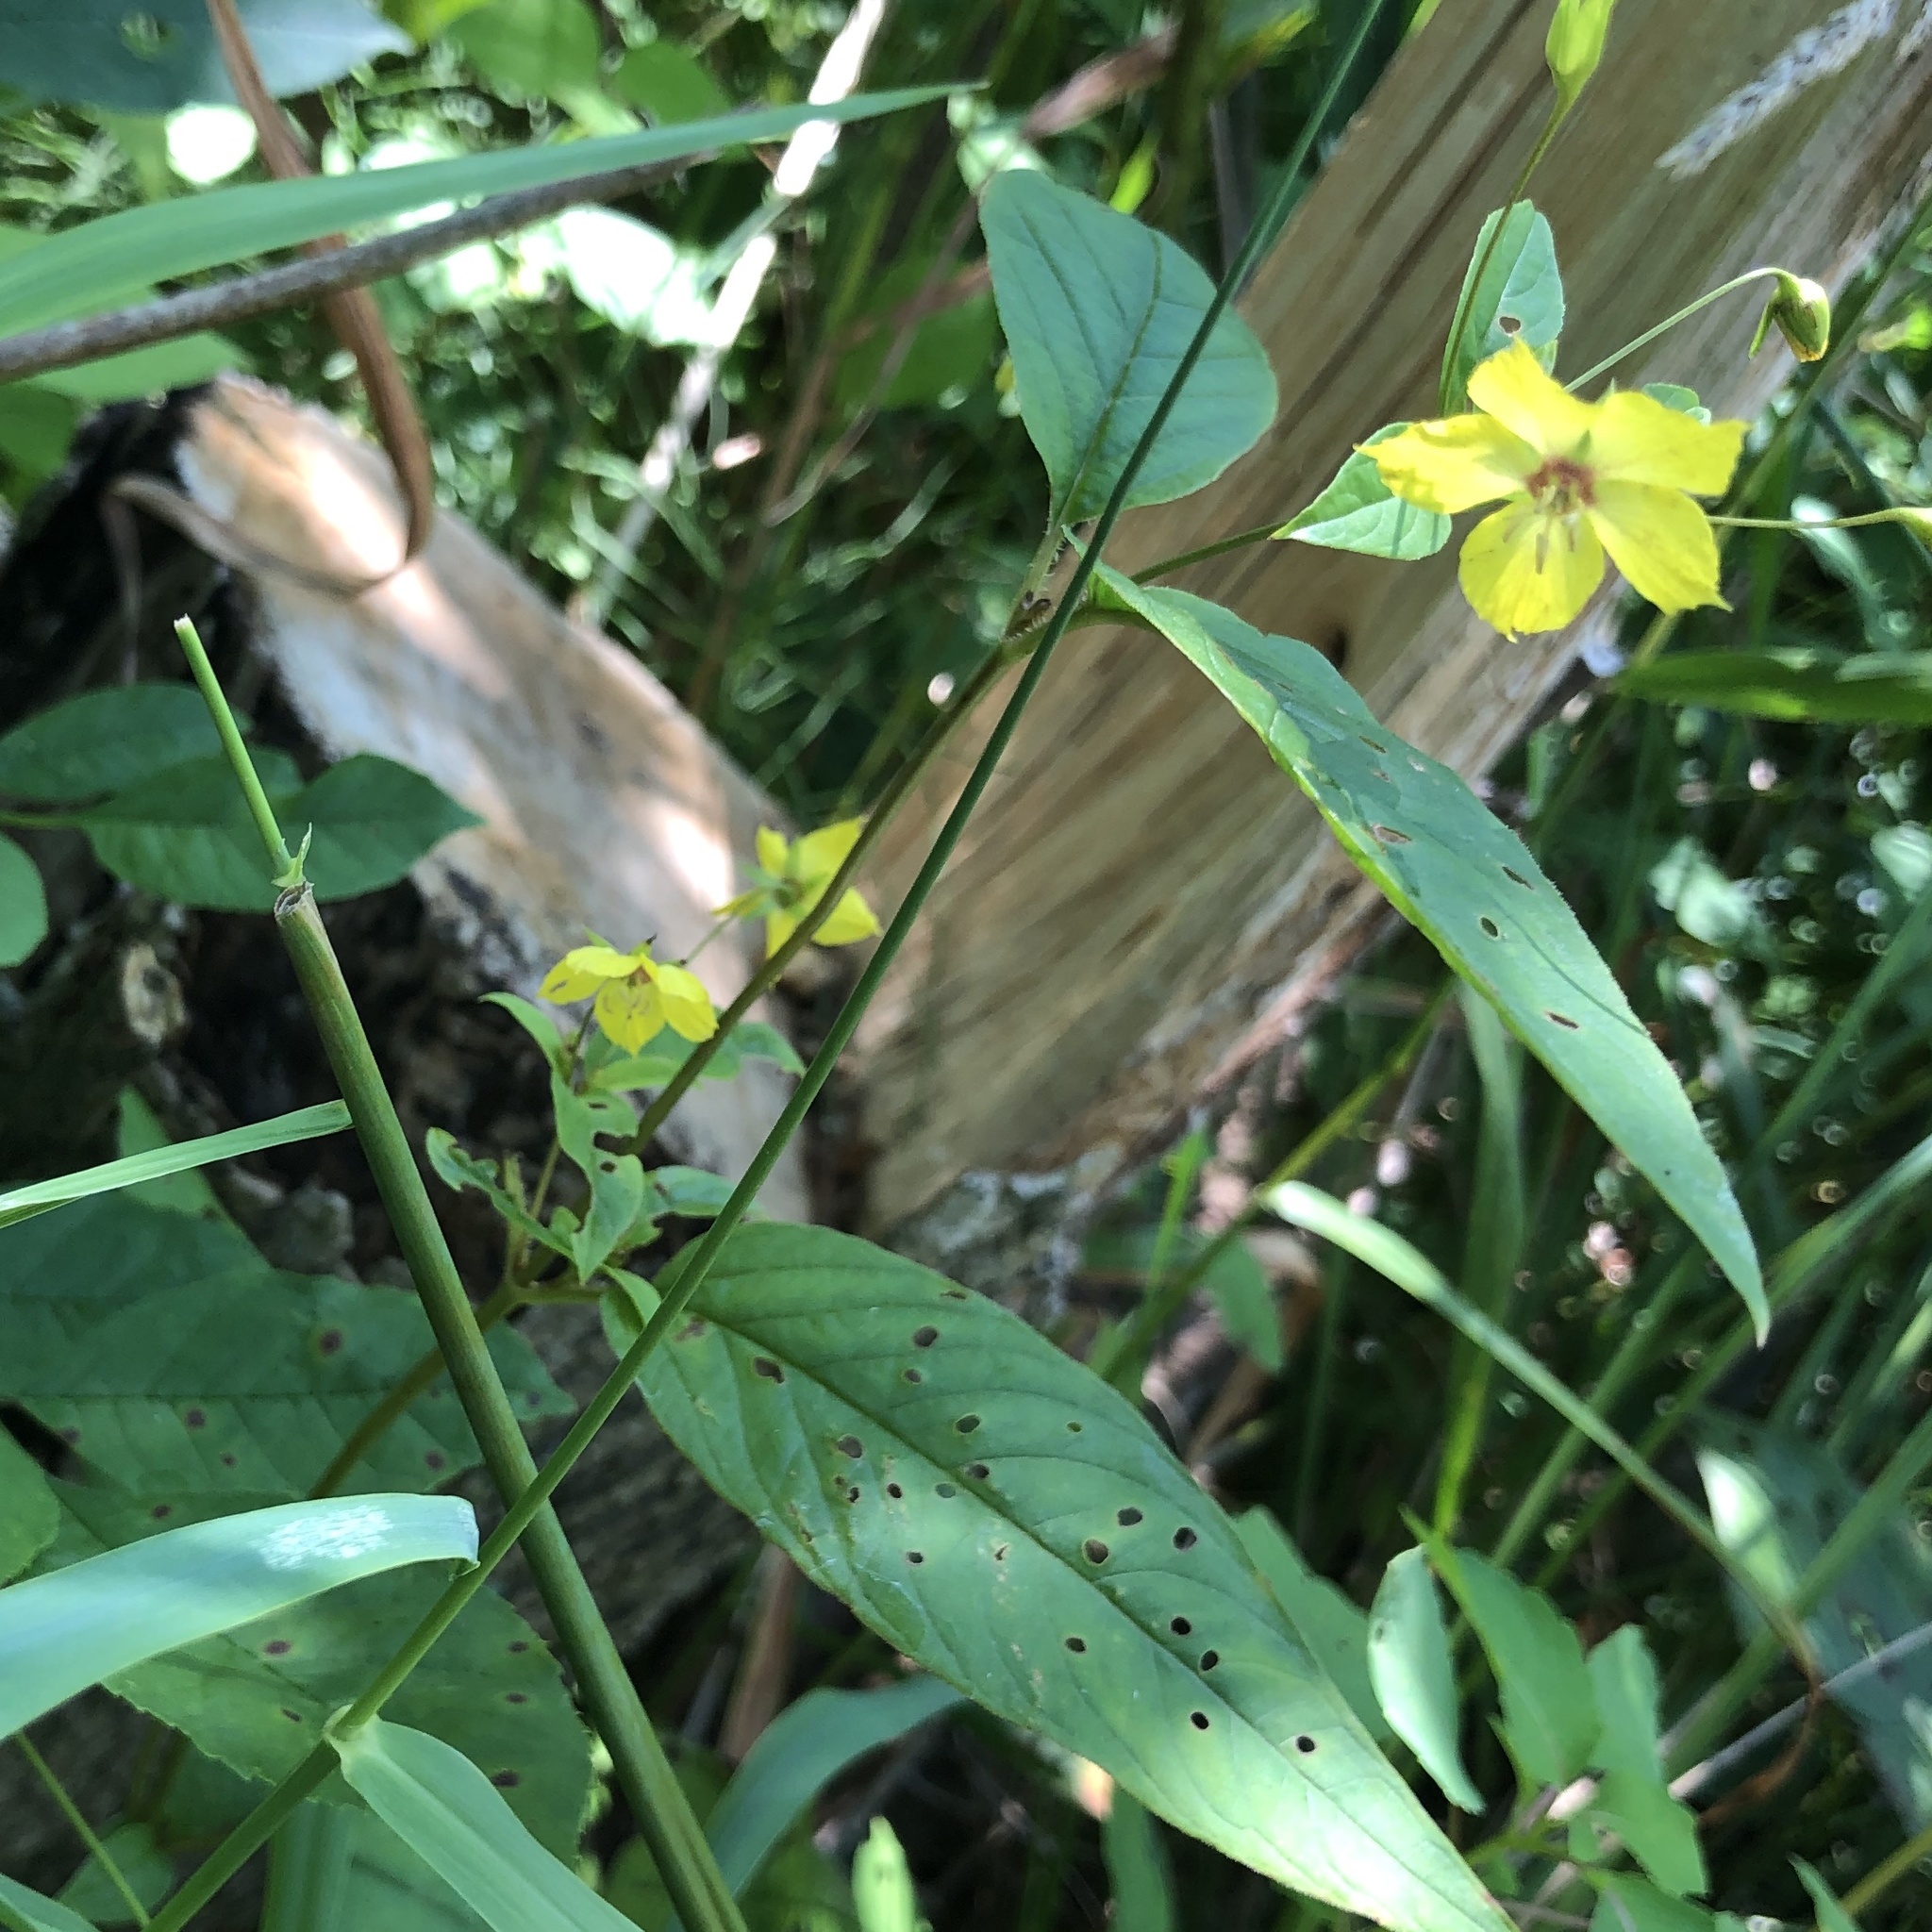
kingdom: Plantae
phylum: Tracheophyta
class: Magnoliopsida
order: Ericales
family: Primulaceae
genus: Lysimachia
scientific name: Lysimachia ciliata
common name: Fringed loosestrife
